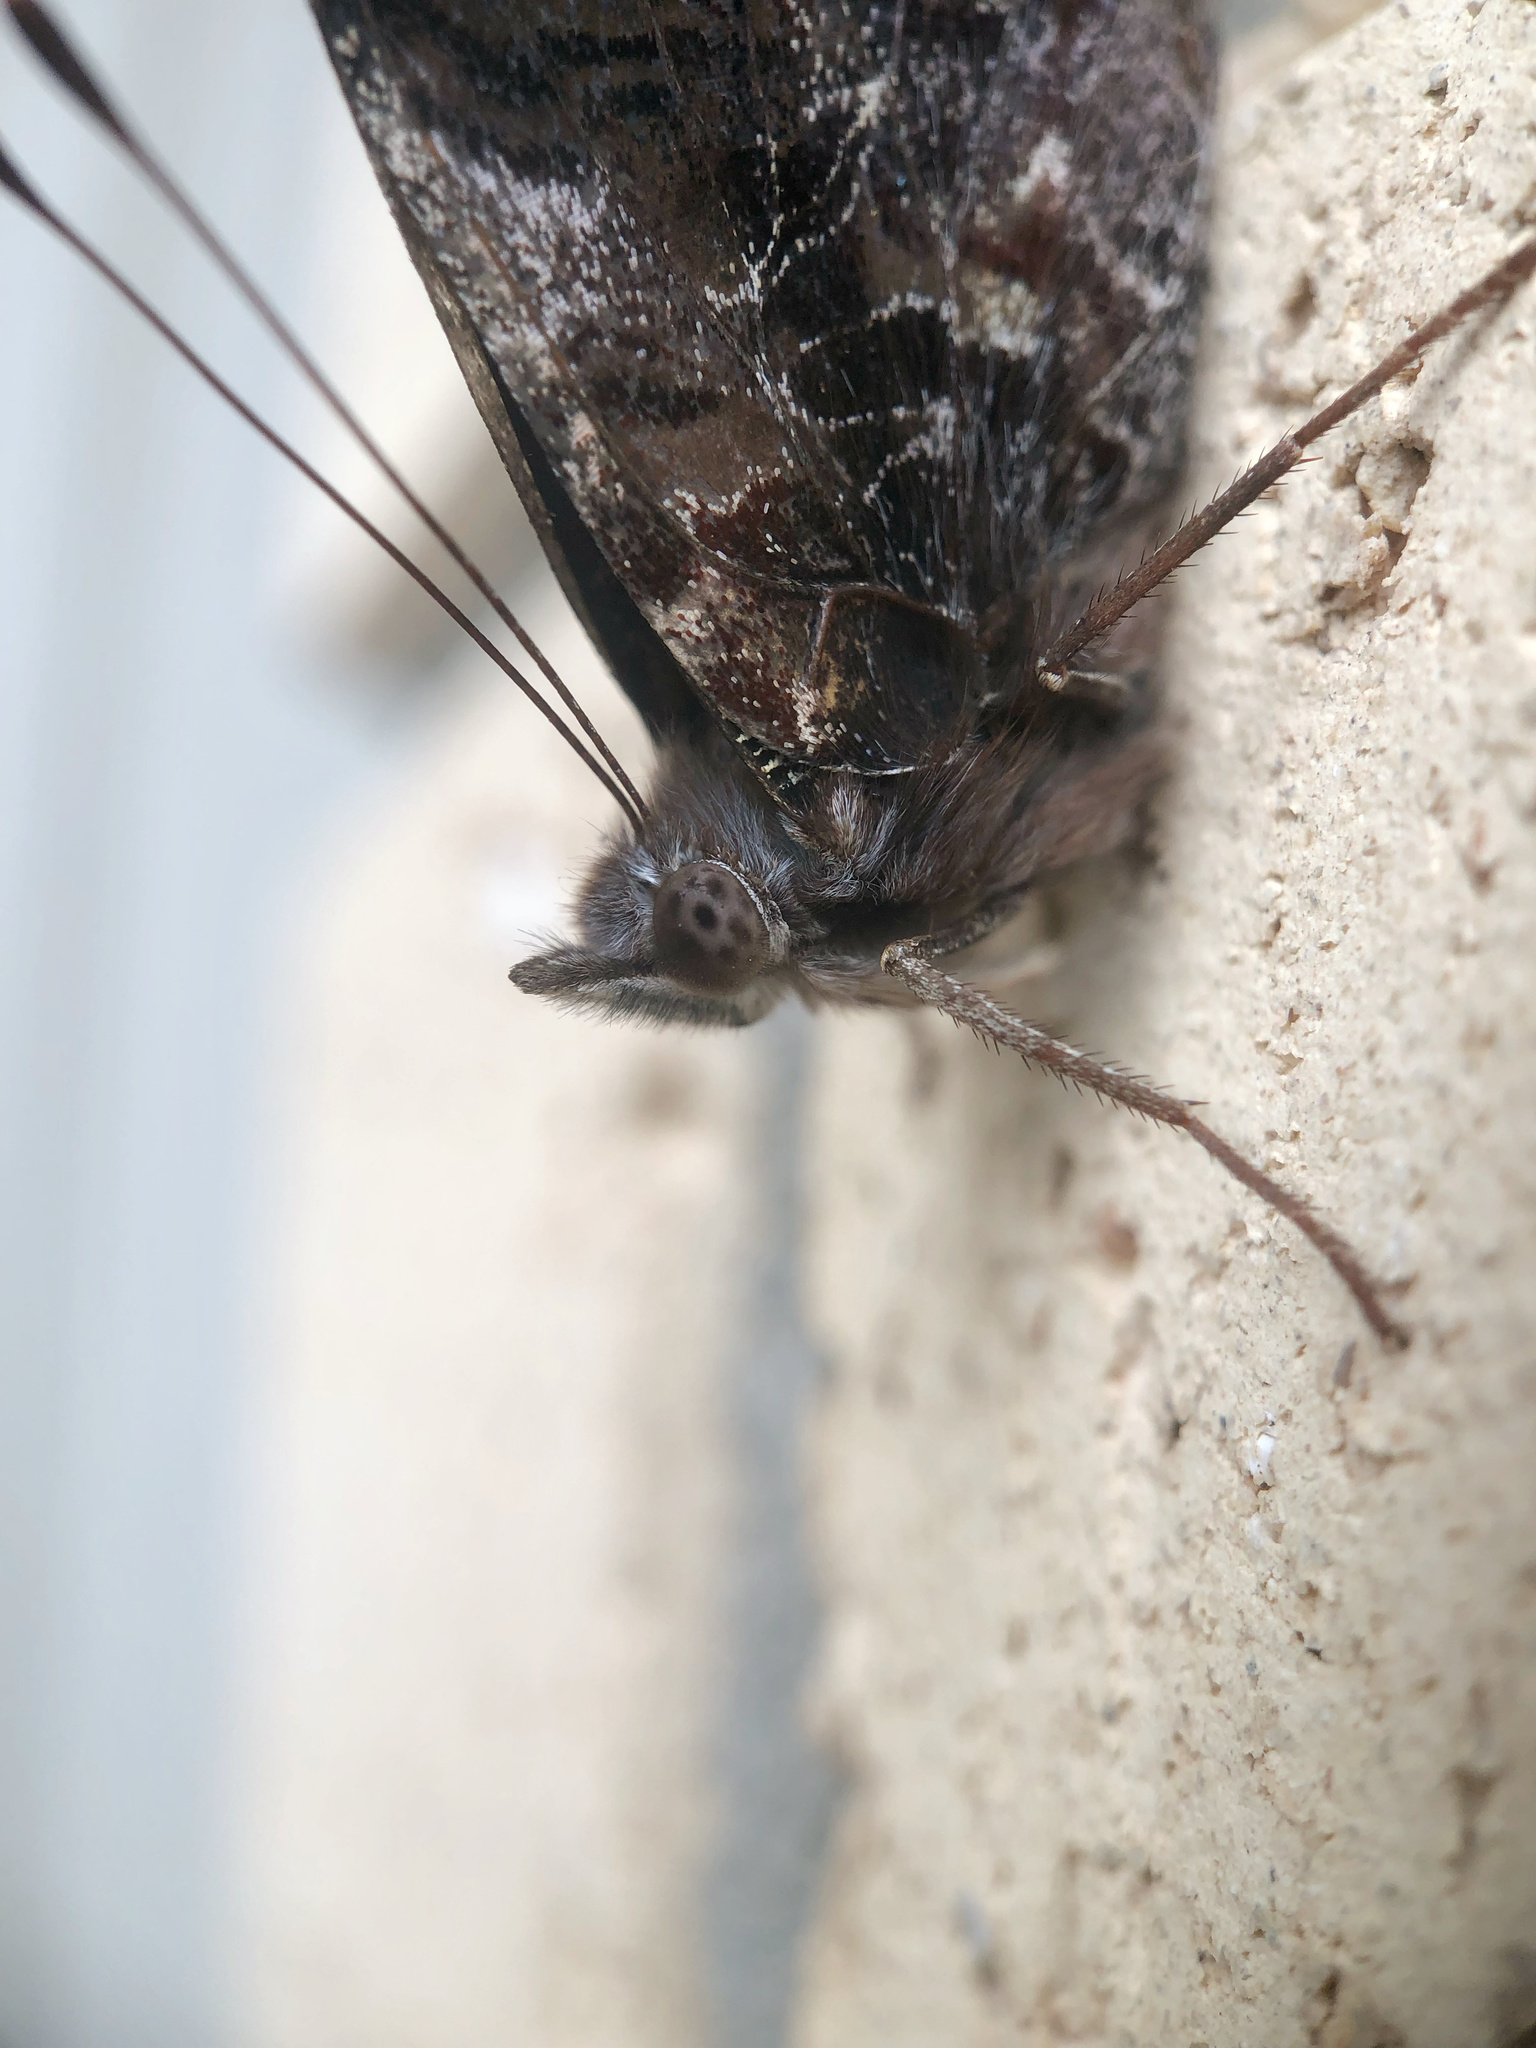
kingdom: Animalia
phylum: Arthropoda
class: Insecta
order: Lepidoptera
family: Nymphalidae
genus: Vanessa
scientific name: Vanessa itea
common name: Yellow admiral
